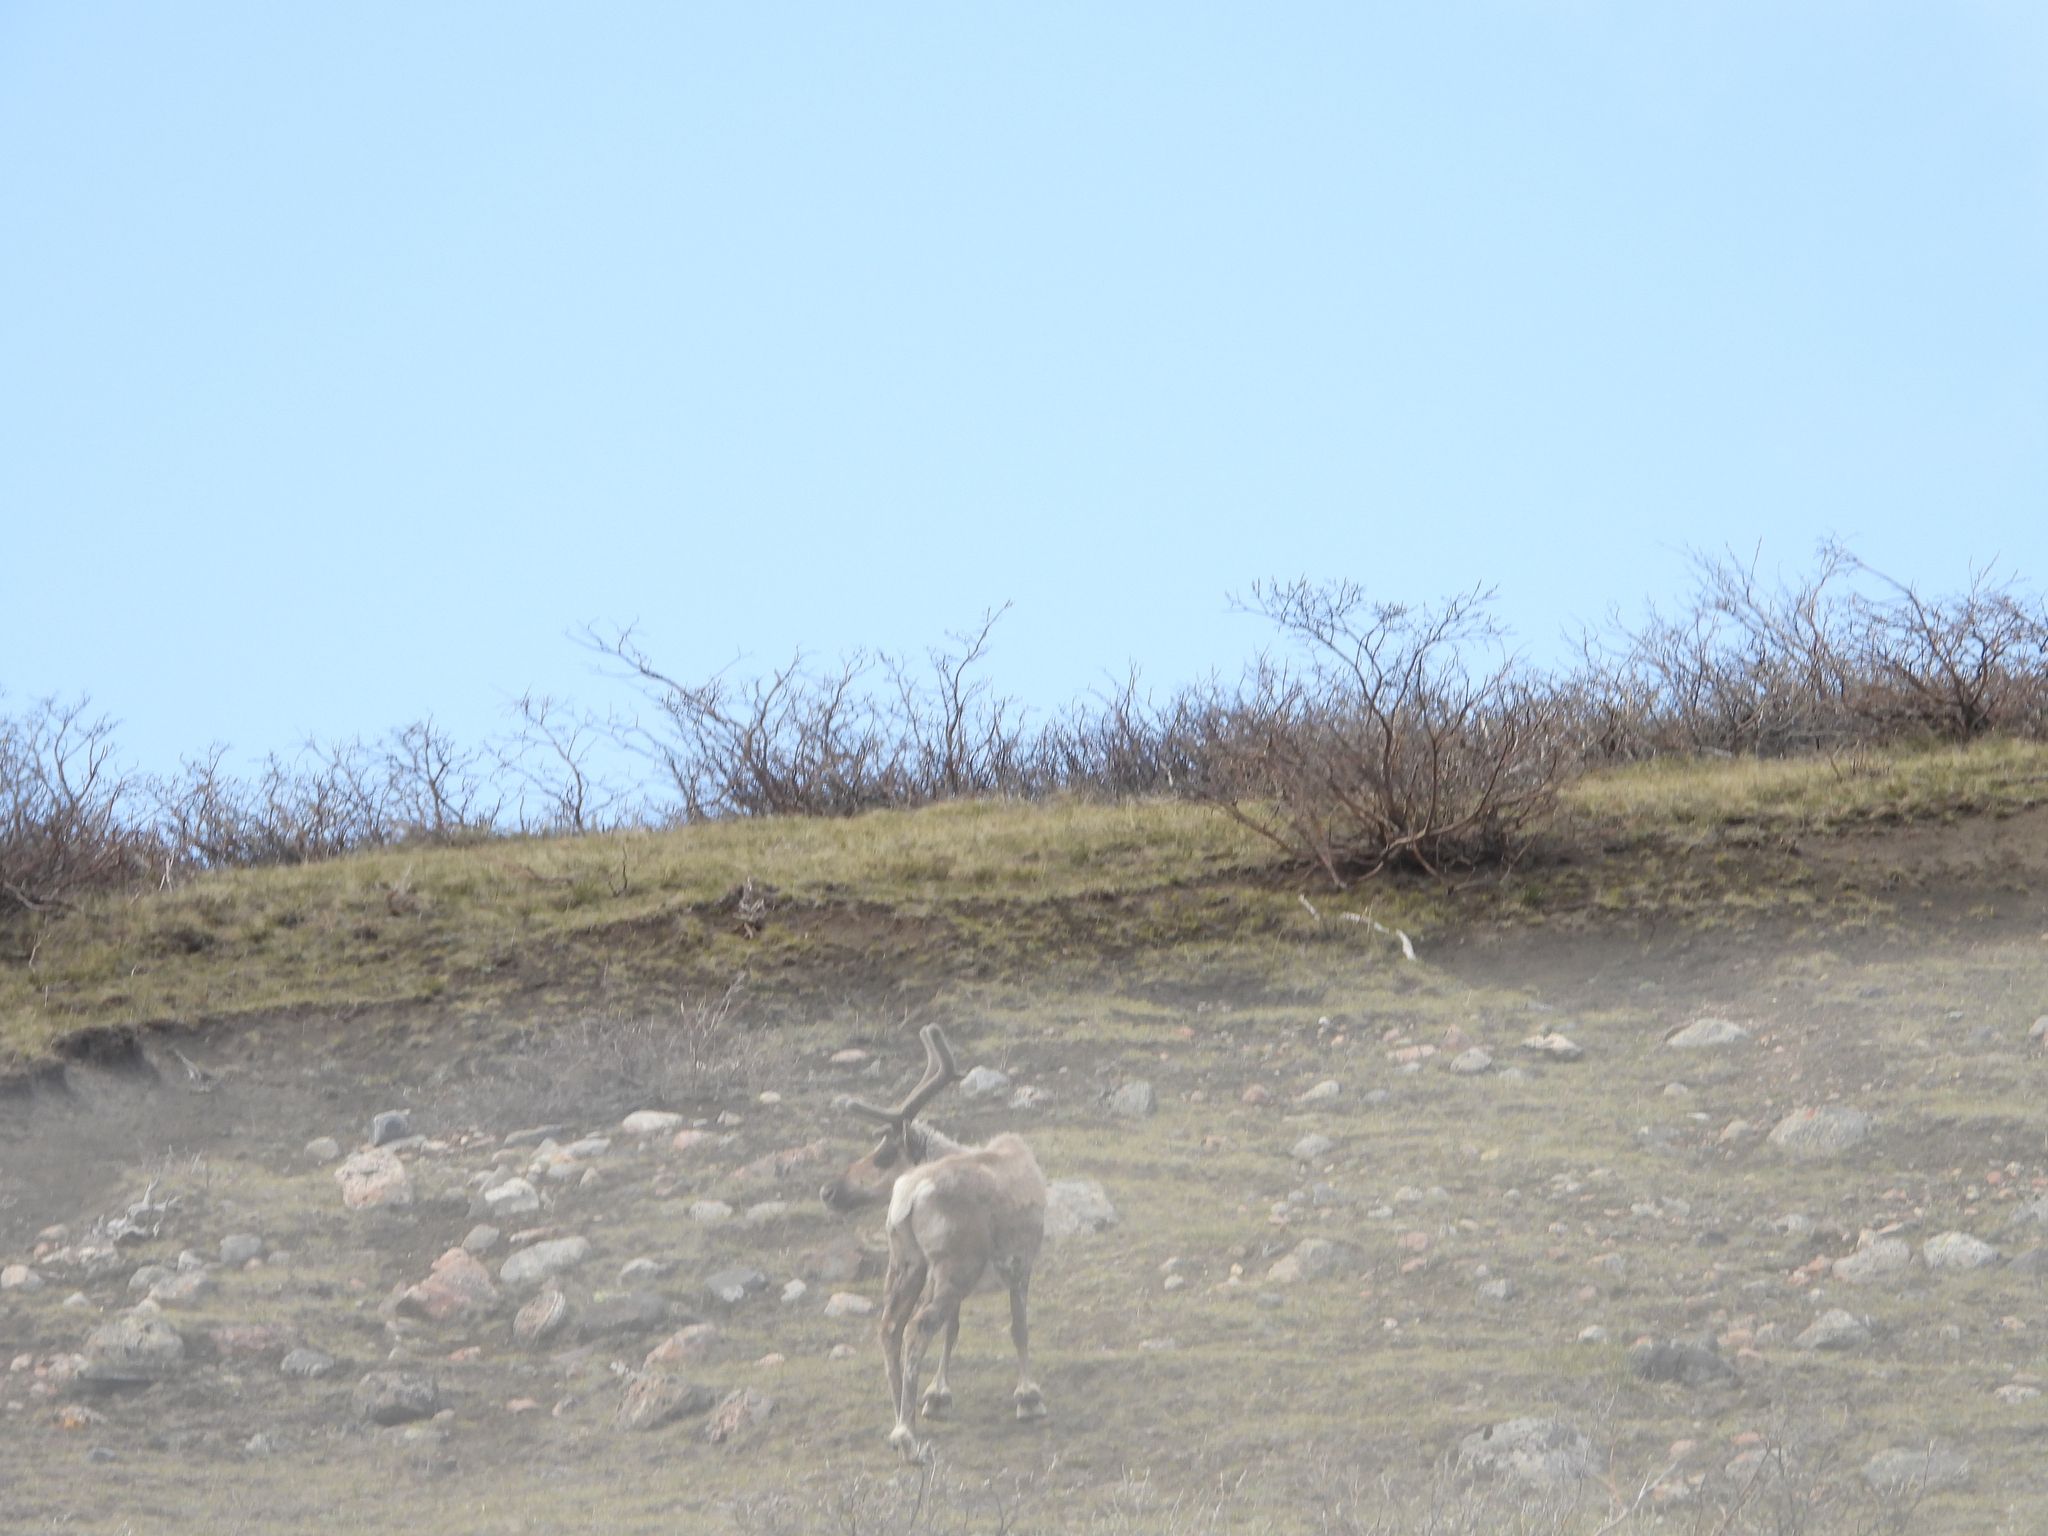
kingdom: Animalia
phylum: Chordata
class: Mammalia
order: Artiodactyla
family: Cervidae
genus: Rangifer
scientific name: Rangifer tarandus
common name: Reindeer
